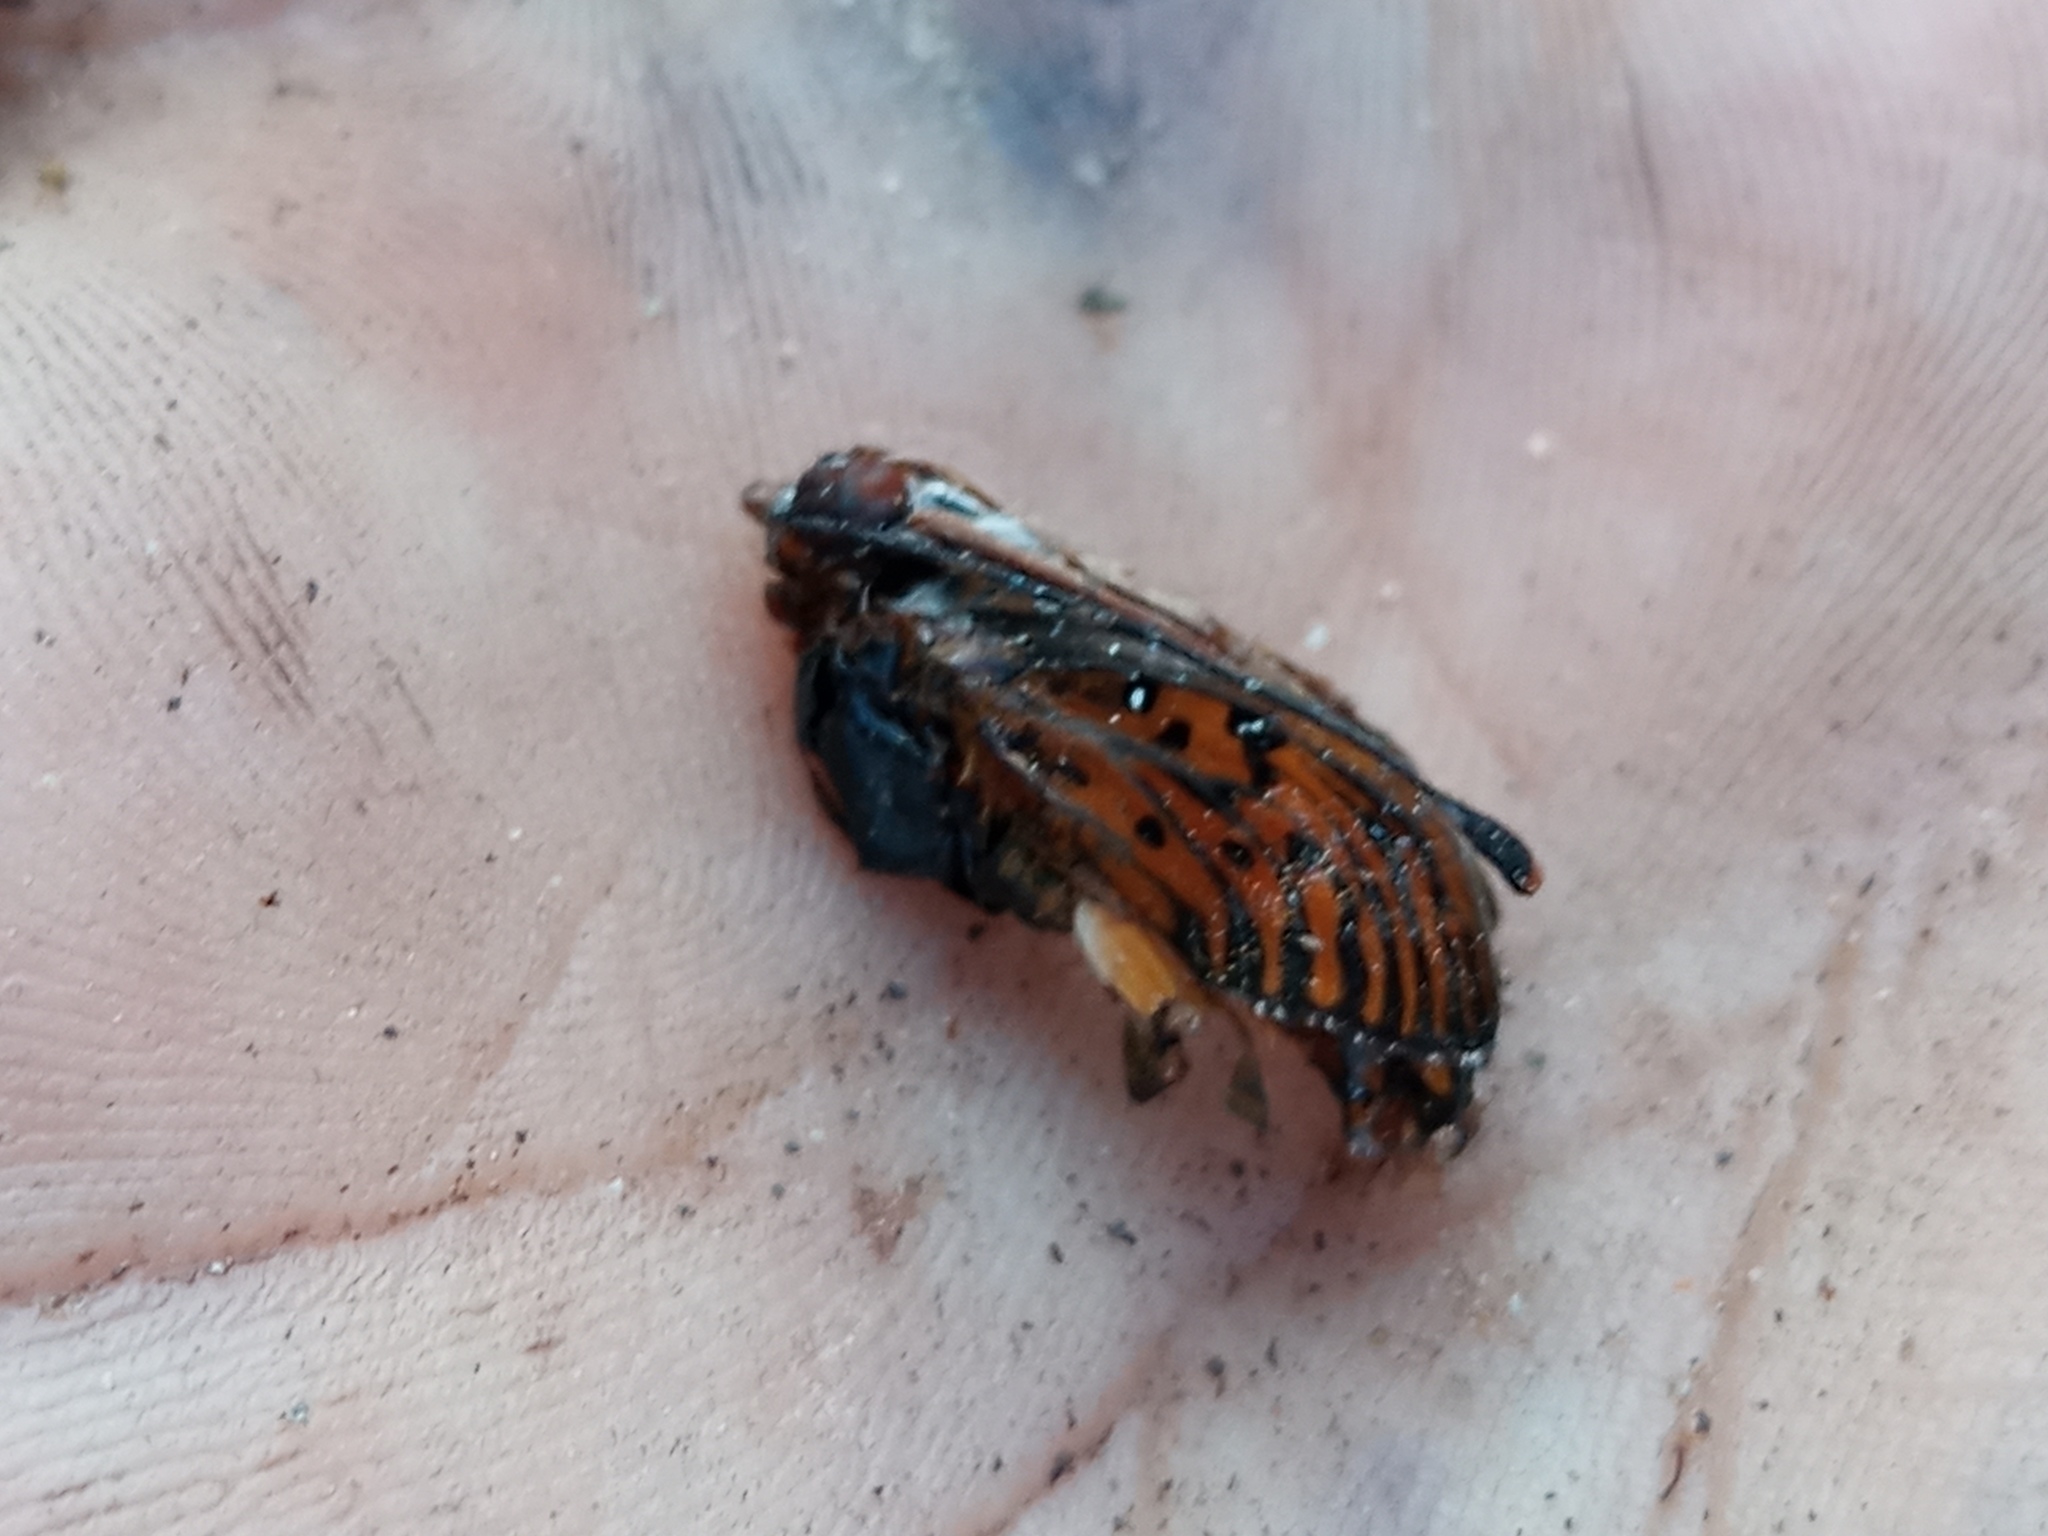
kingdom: Animalia
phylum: Arthropoda
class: Insecta
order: Lepidoptera
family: Nymphalidae
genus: Dione
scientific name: Dione vanillae
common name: Gulf fritillary
